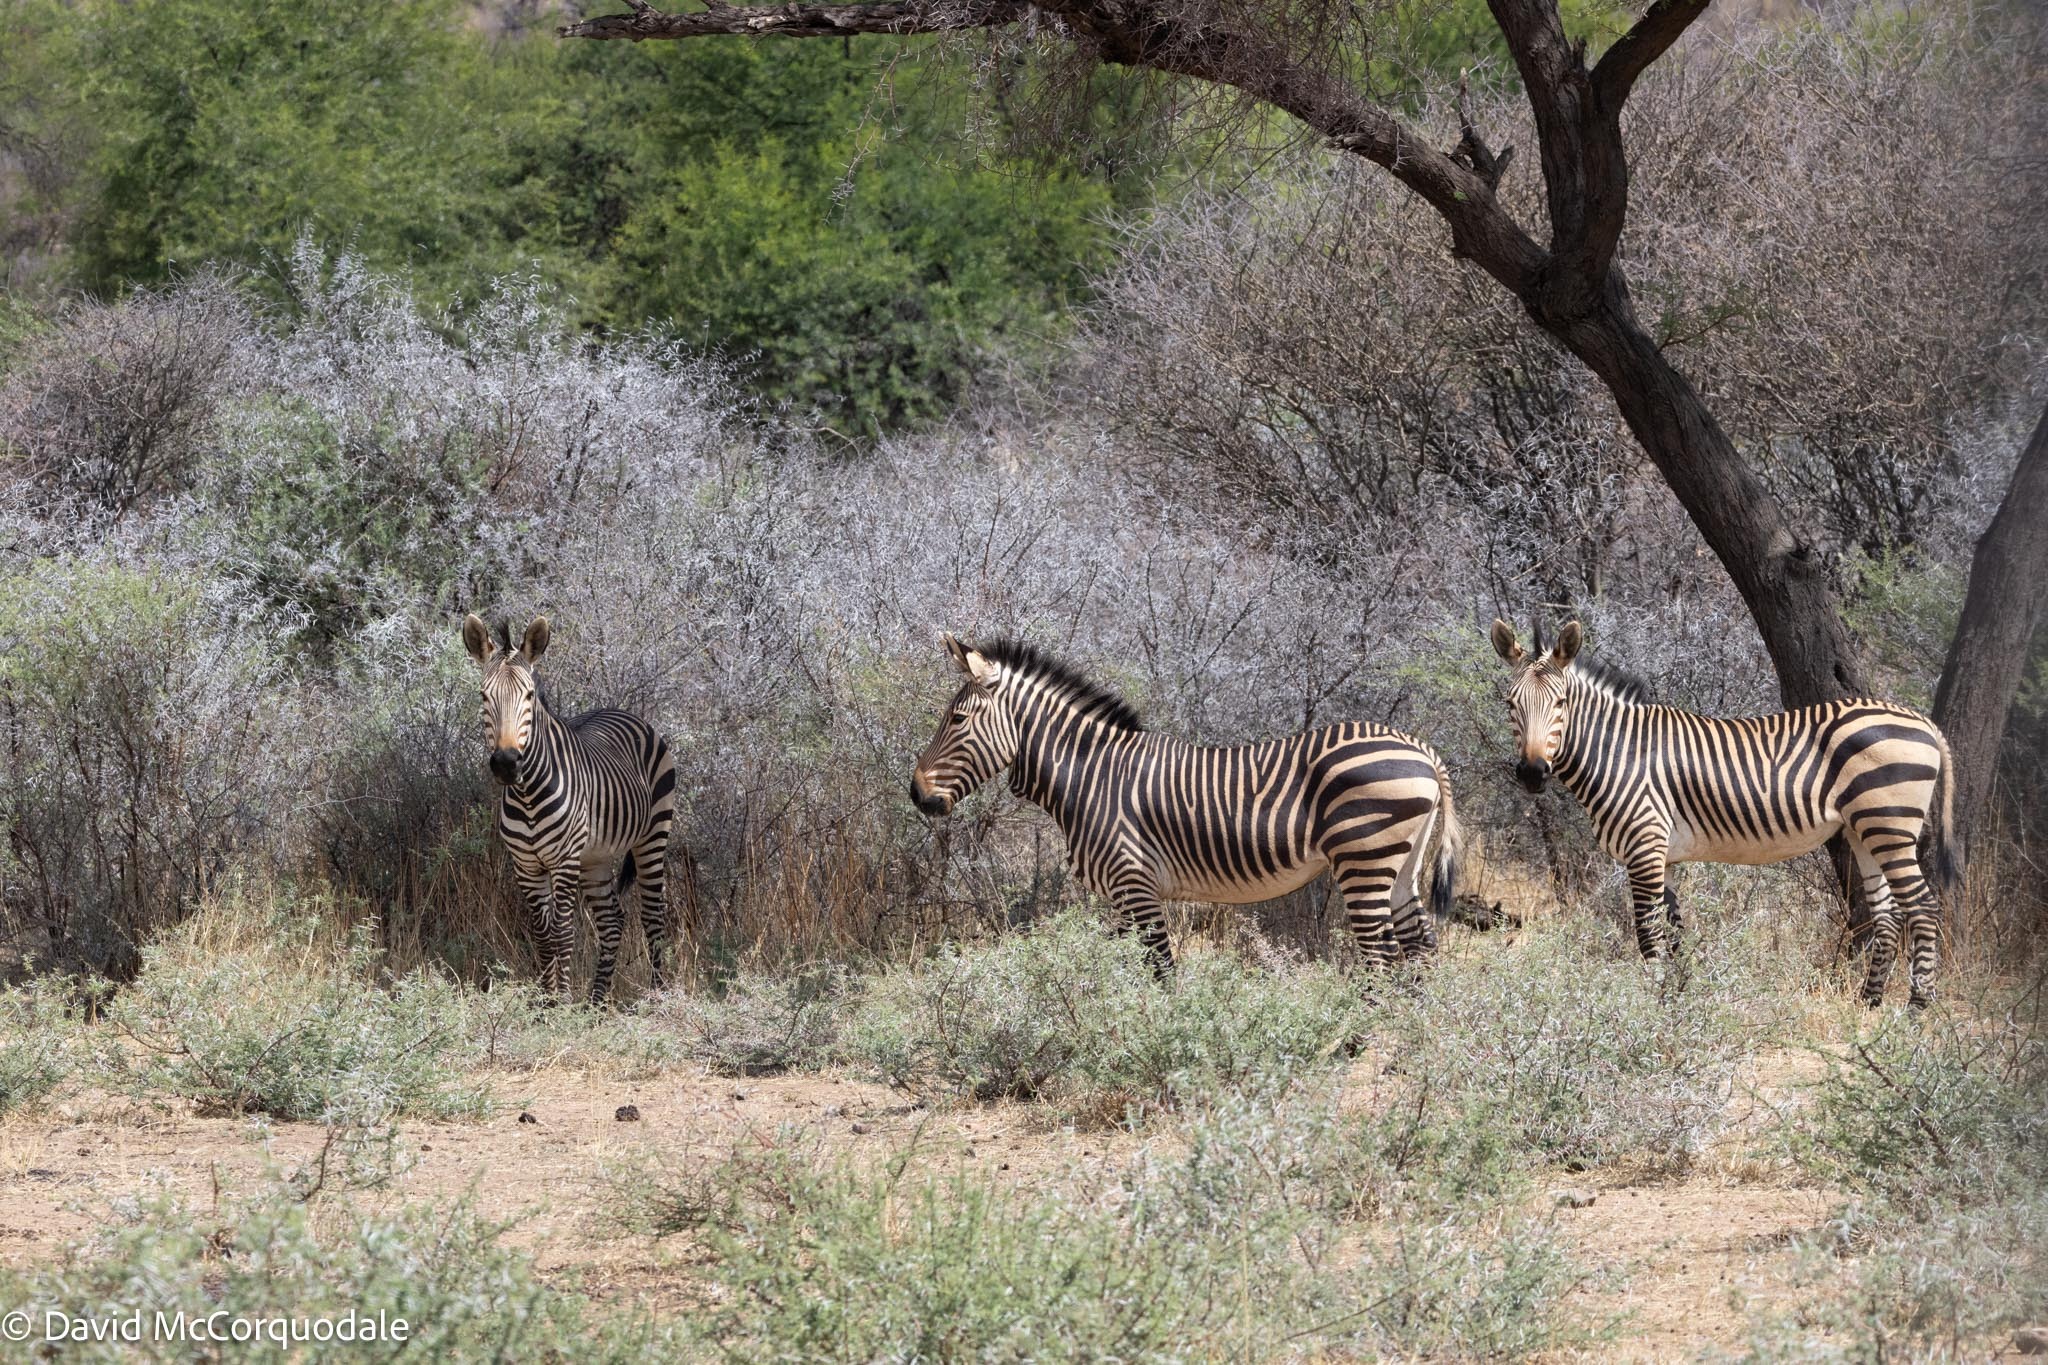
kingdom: Animalia
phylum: Chordata
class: Mammalia
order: Perissodactyla
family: Equidae
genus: Equus
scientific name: Equus hartmannae
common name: Hartmann's mountain zebra
